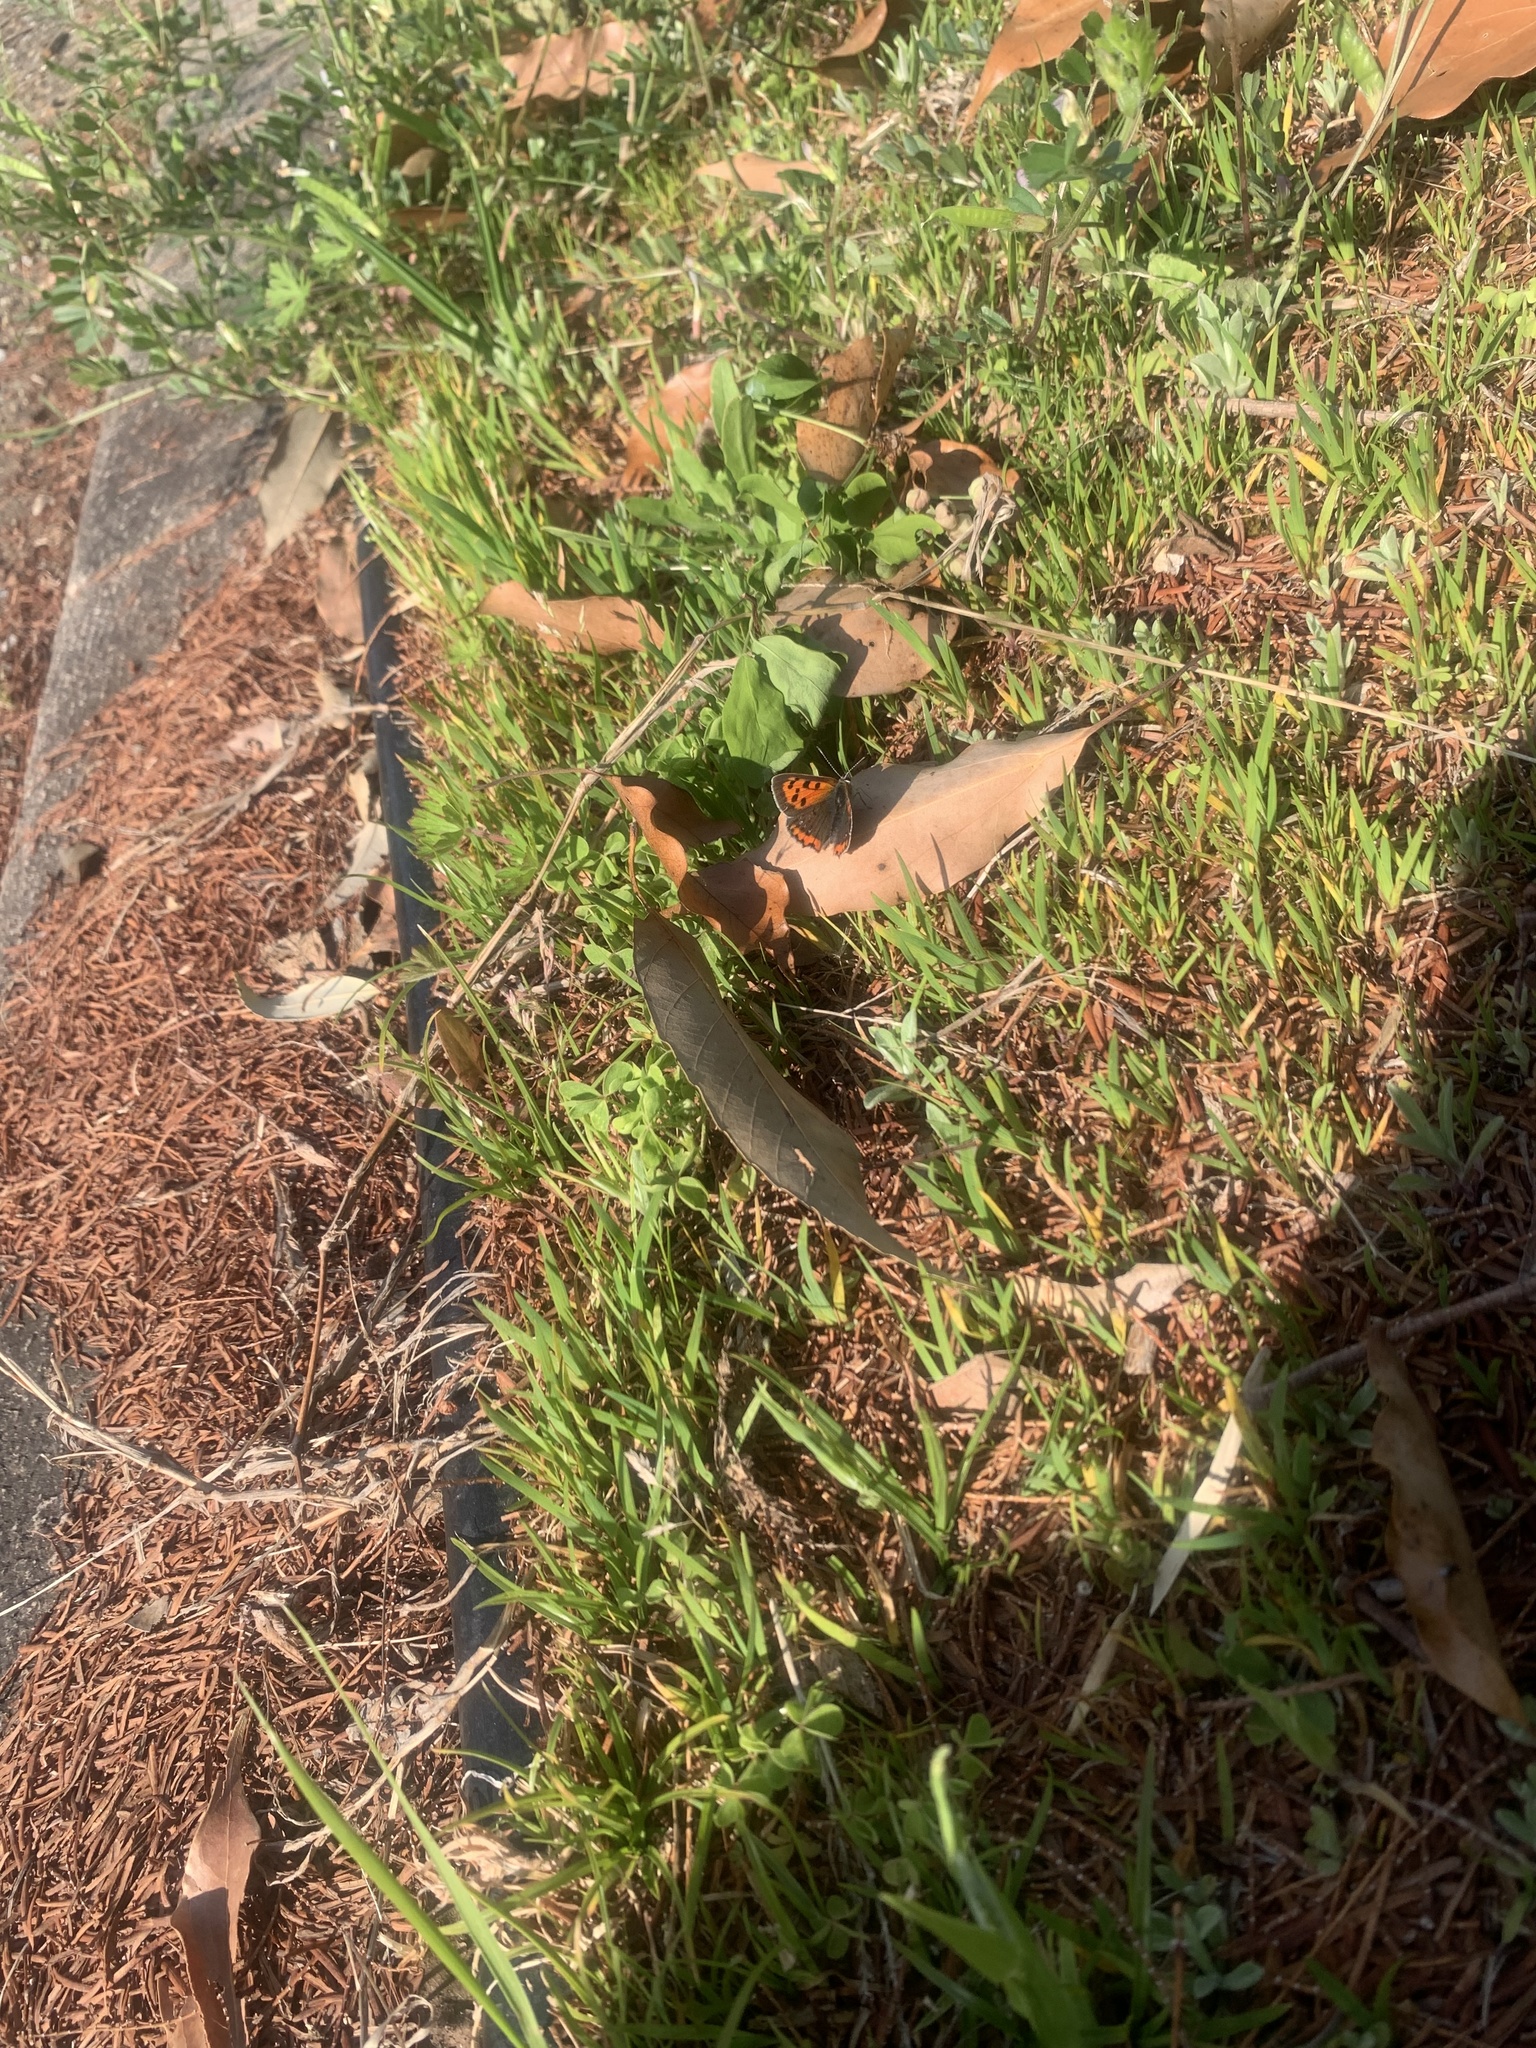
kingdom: Animalia
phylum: Arthropoda
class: Insecta
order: Lepidoptera
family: Lycaenidae
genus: Lycaena
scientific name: Lycaena phlaeas
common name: Small copper
